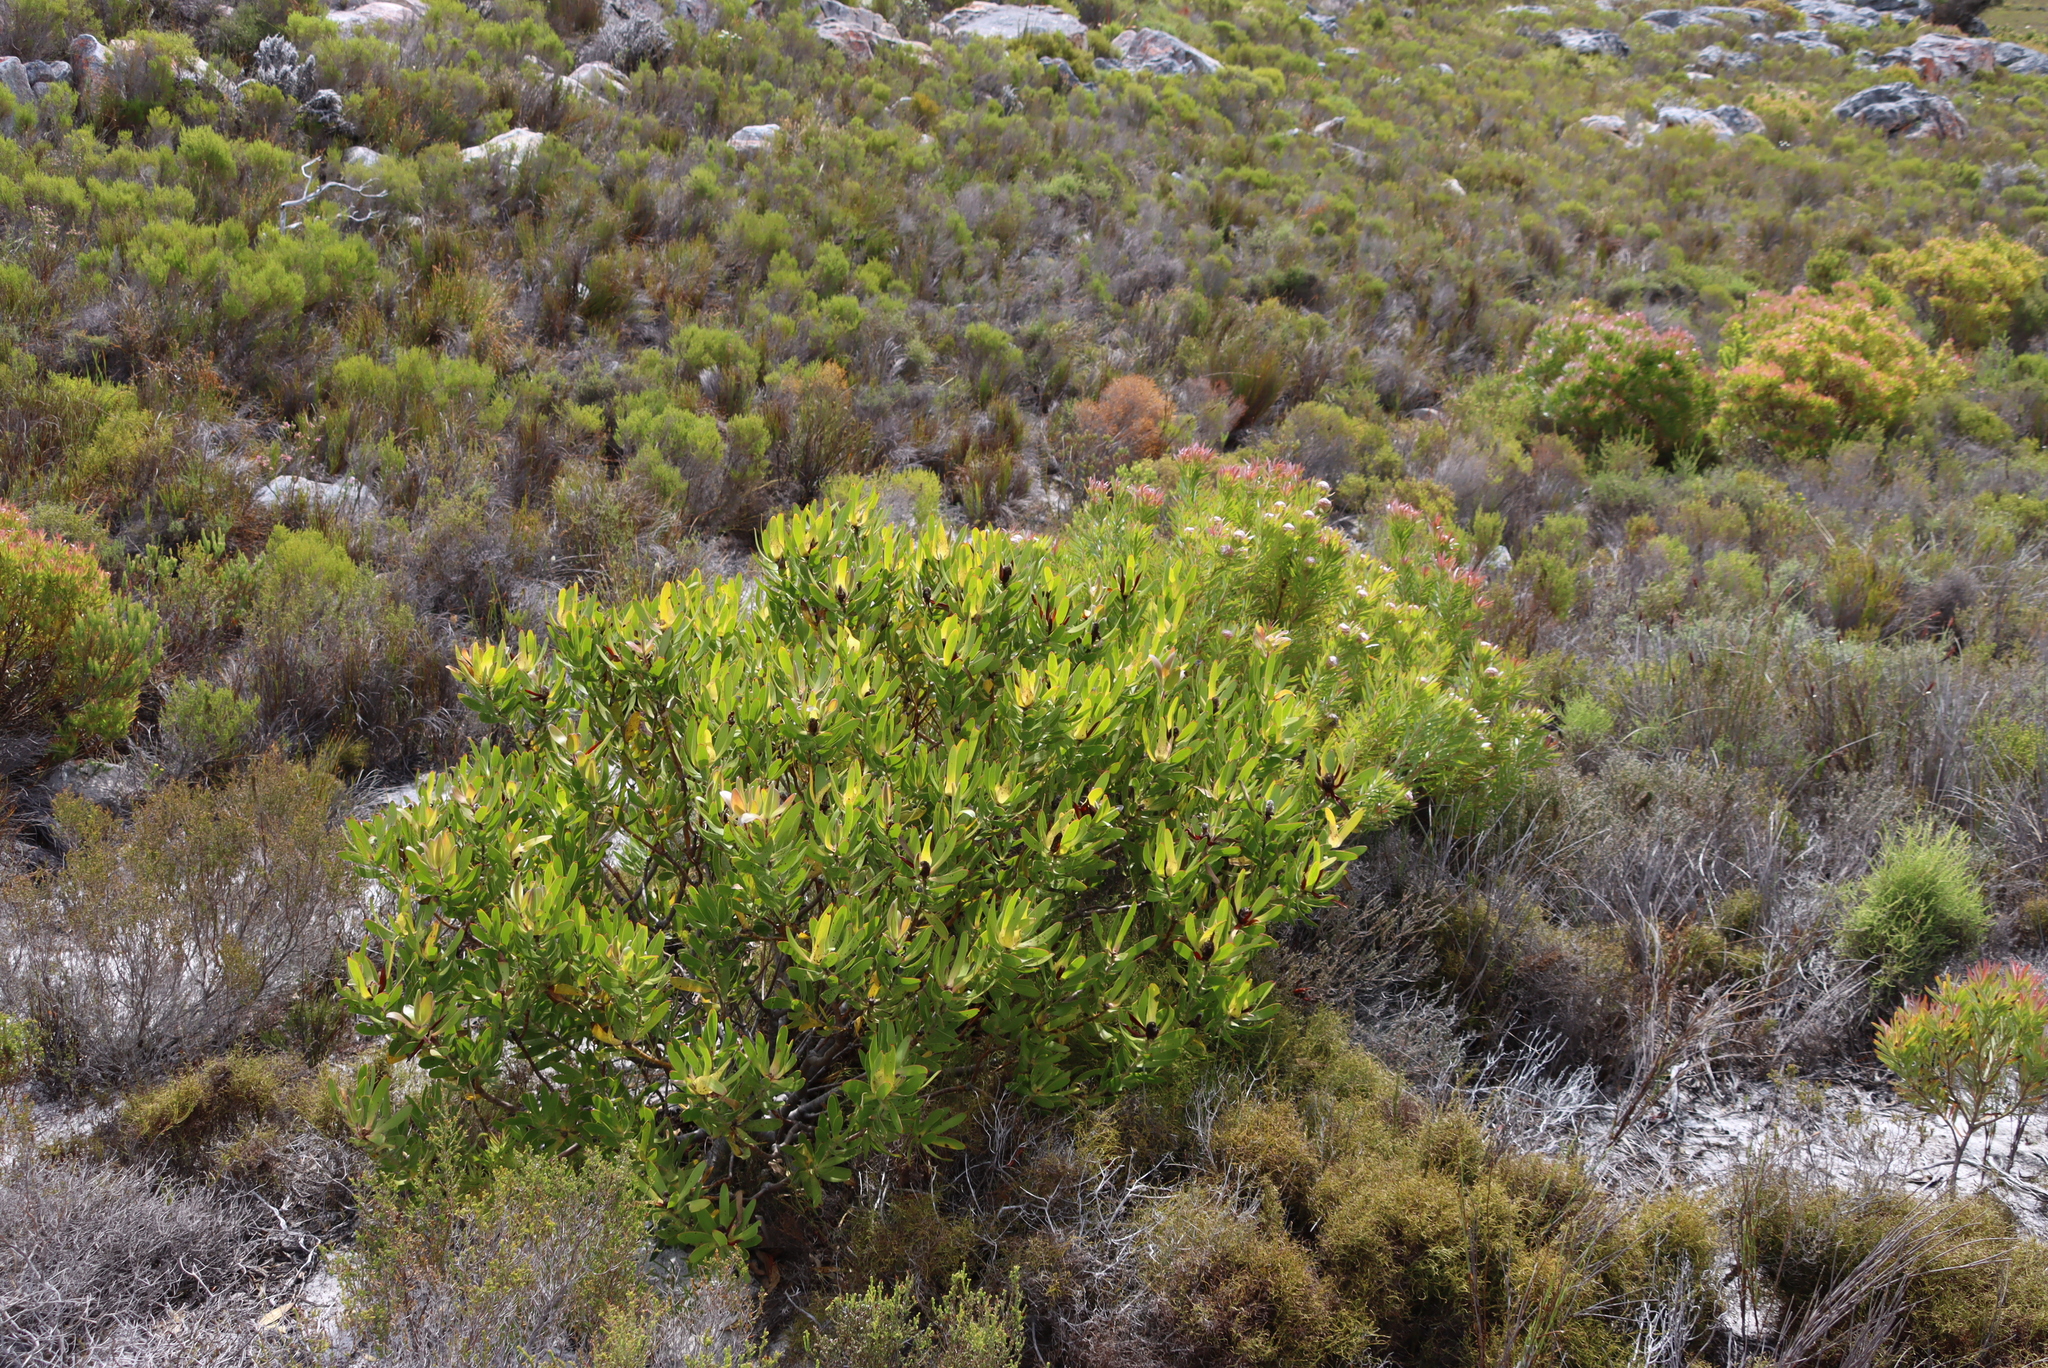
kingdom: Plantae
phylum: Tracheophyta
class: Magnoliopsida
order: Proteales
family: Proteaceae
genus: Leucadendron
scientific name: Leucadendron laureolum
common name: Golden sunshinebush
